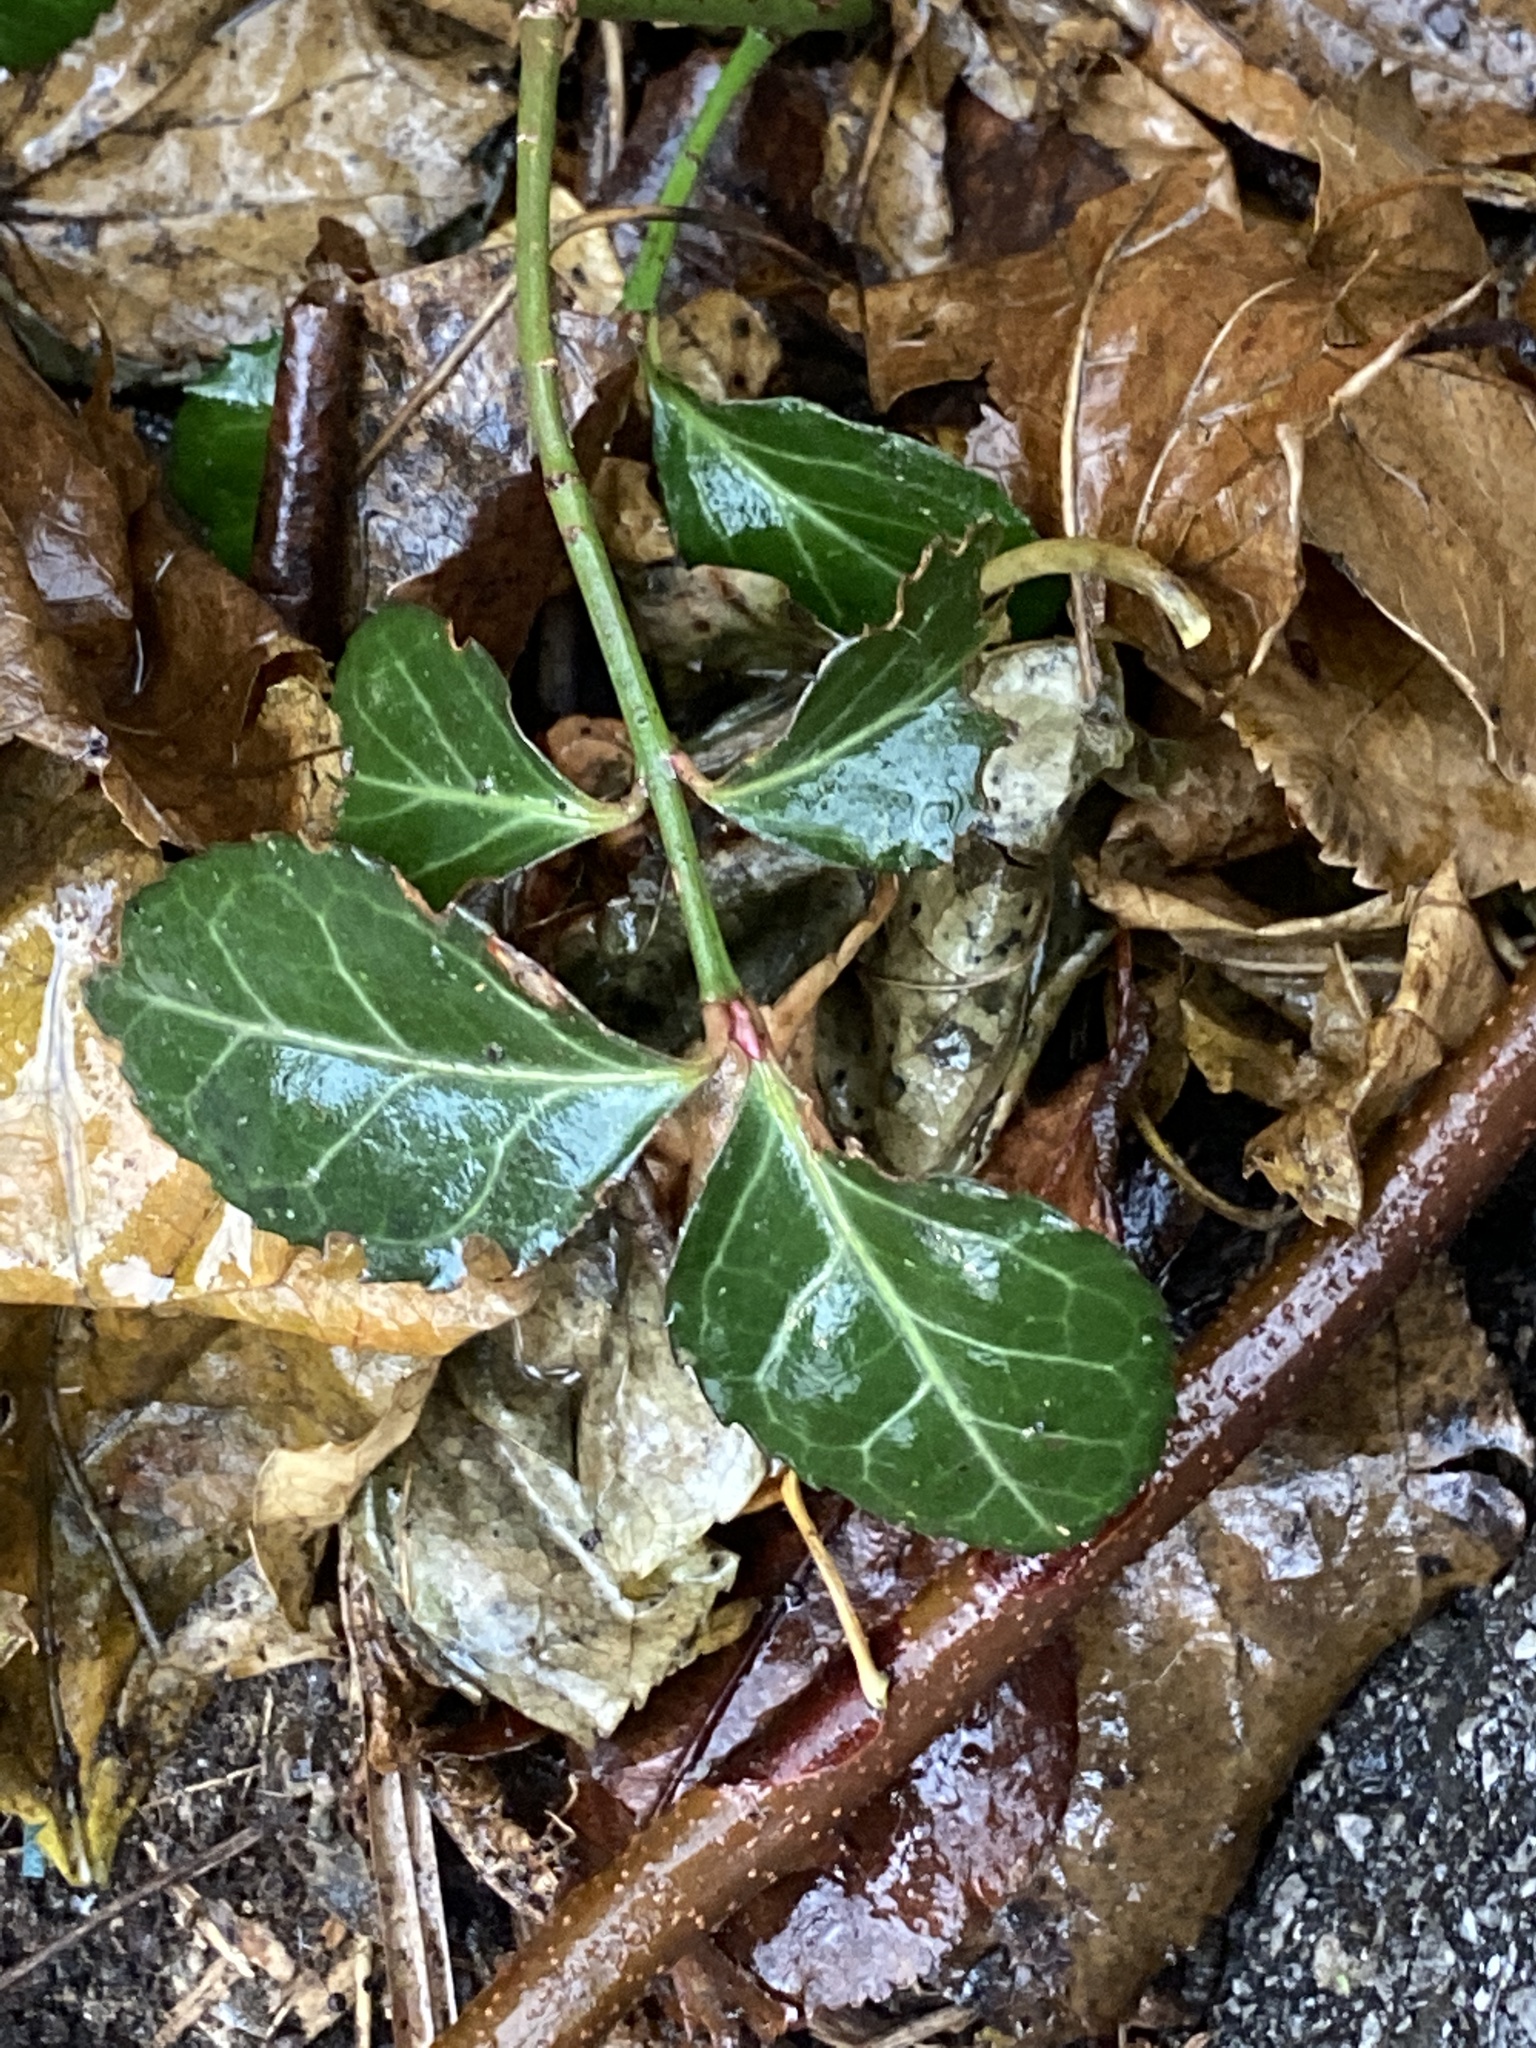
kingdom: Plantae
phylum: Tracheophyta
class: Magnoliopsida
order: Celastrales
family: Celastraceae
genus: Euonymus
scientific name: Euonymus fortunei
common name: Climbing euonymus
